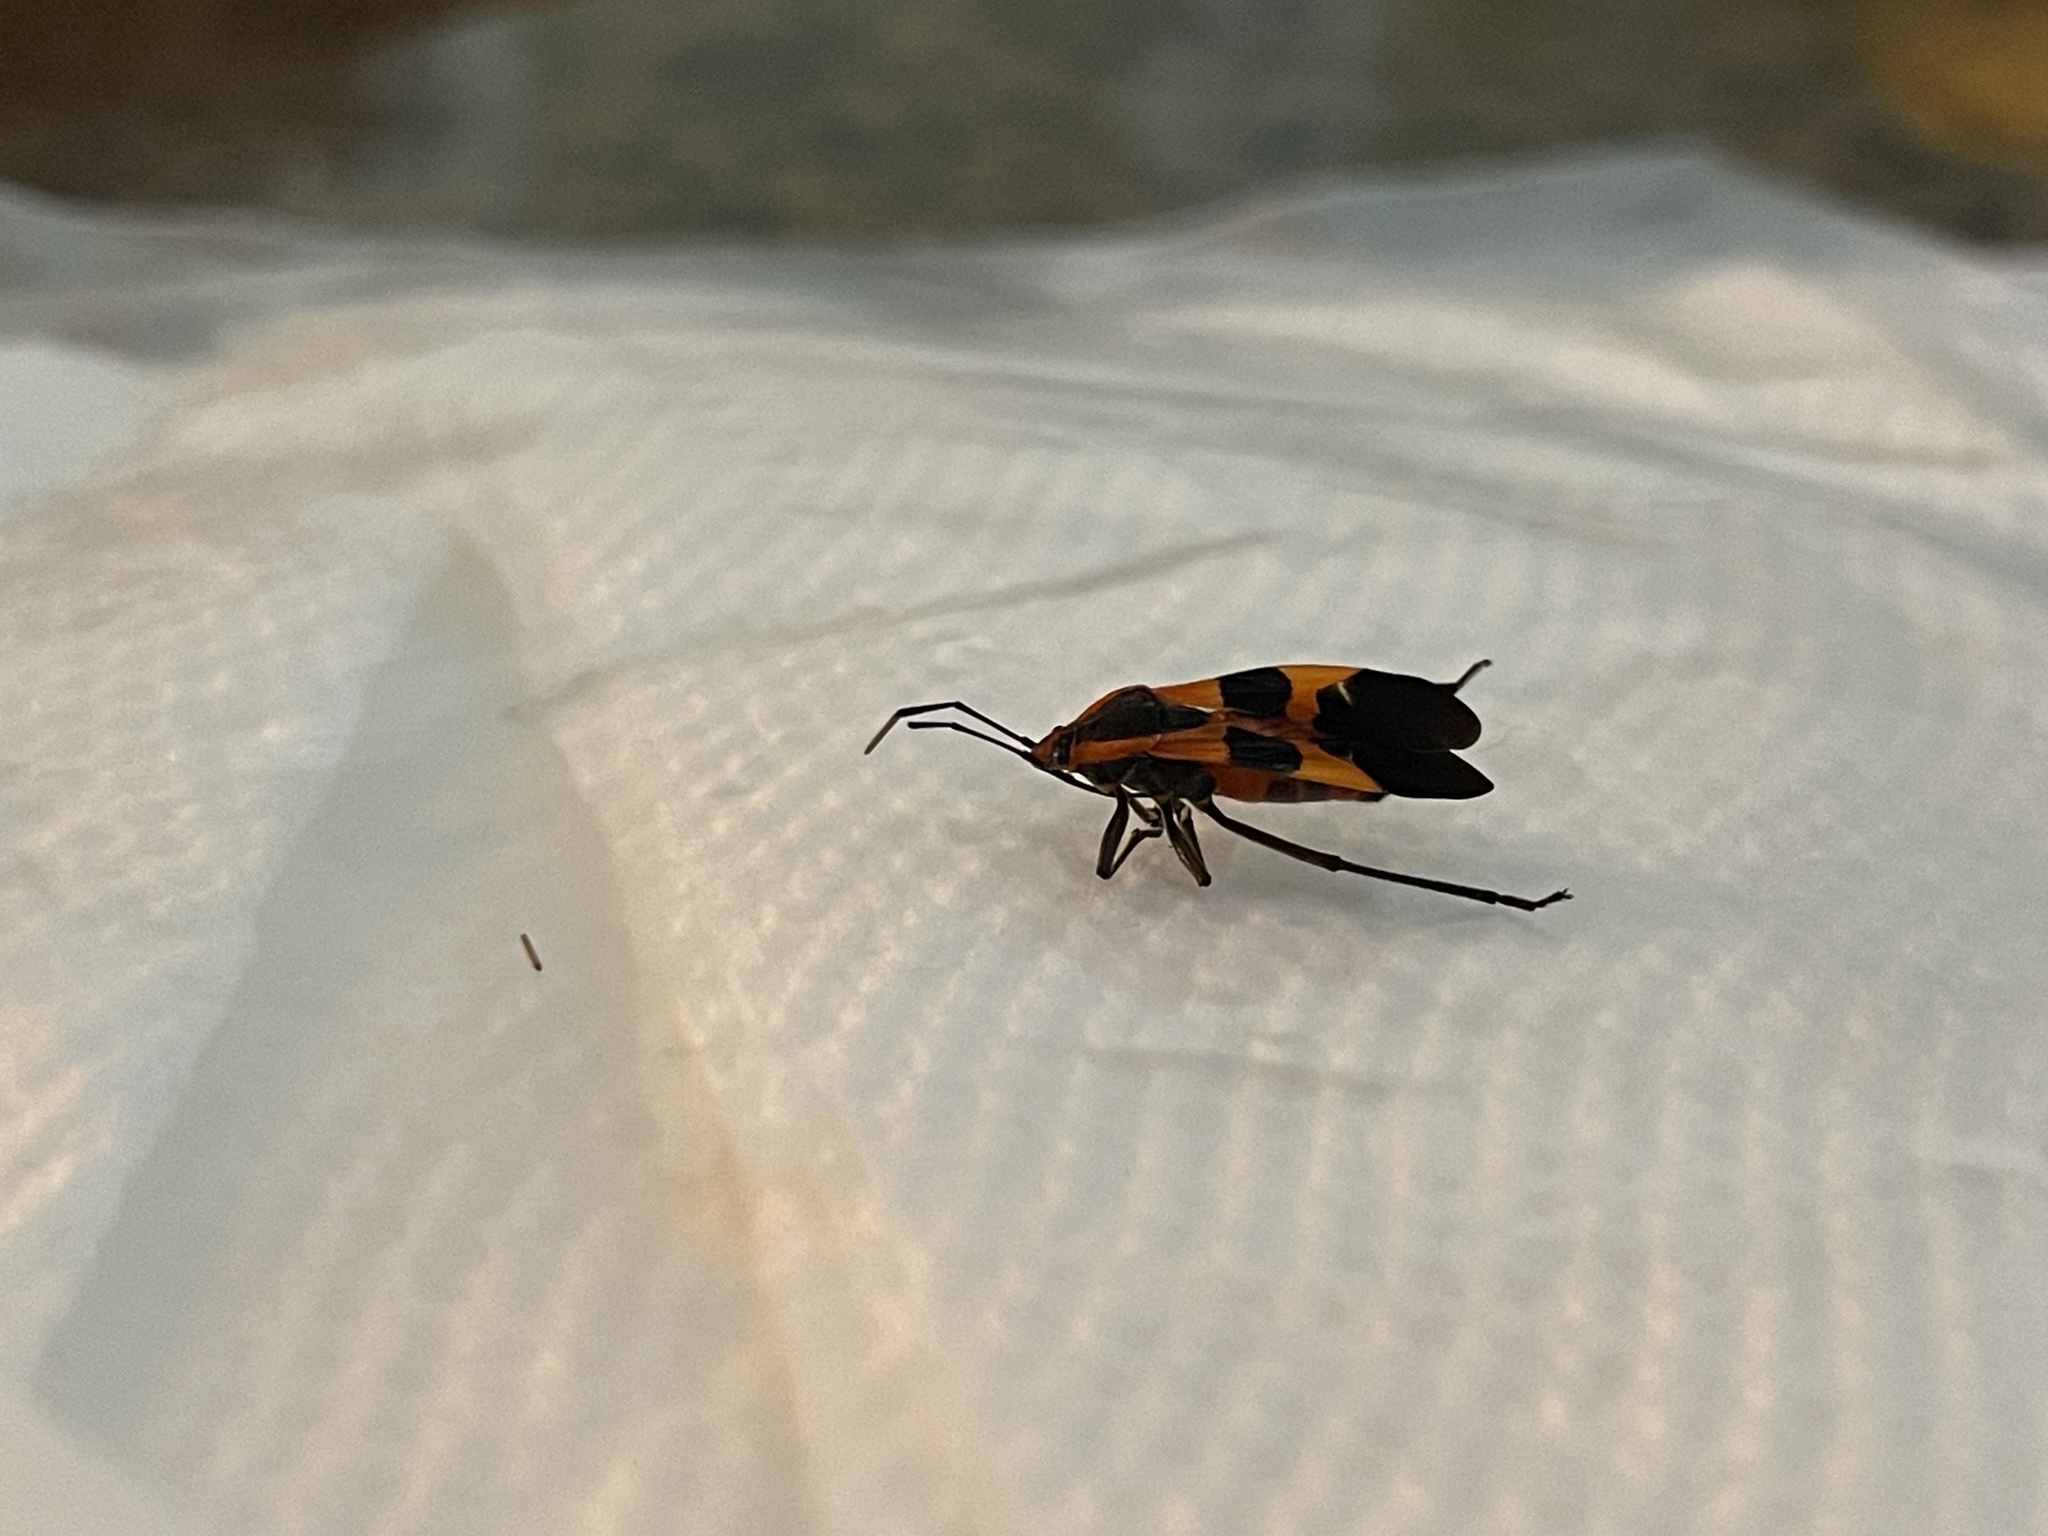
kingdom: Animalia
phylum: Arthropoda
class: Insecta
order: Hemiptera
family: Lygaeidae
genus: Oncopeltus
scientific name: Oncopeltus fasciatus
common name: Large milkweed bug
